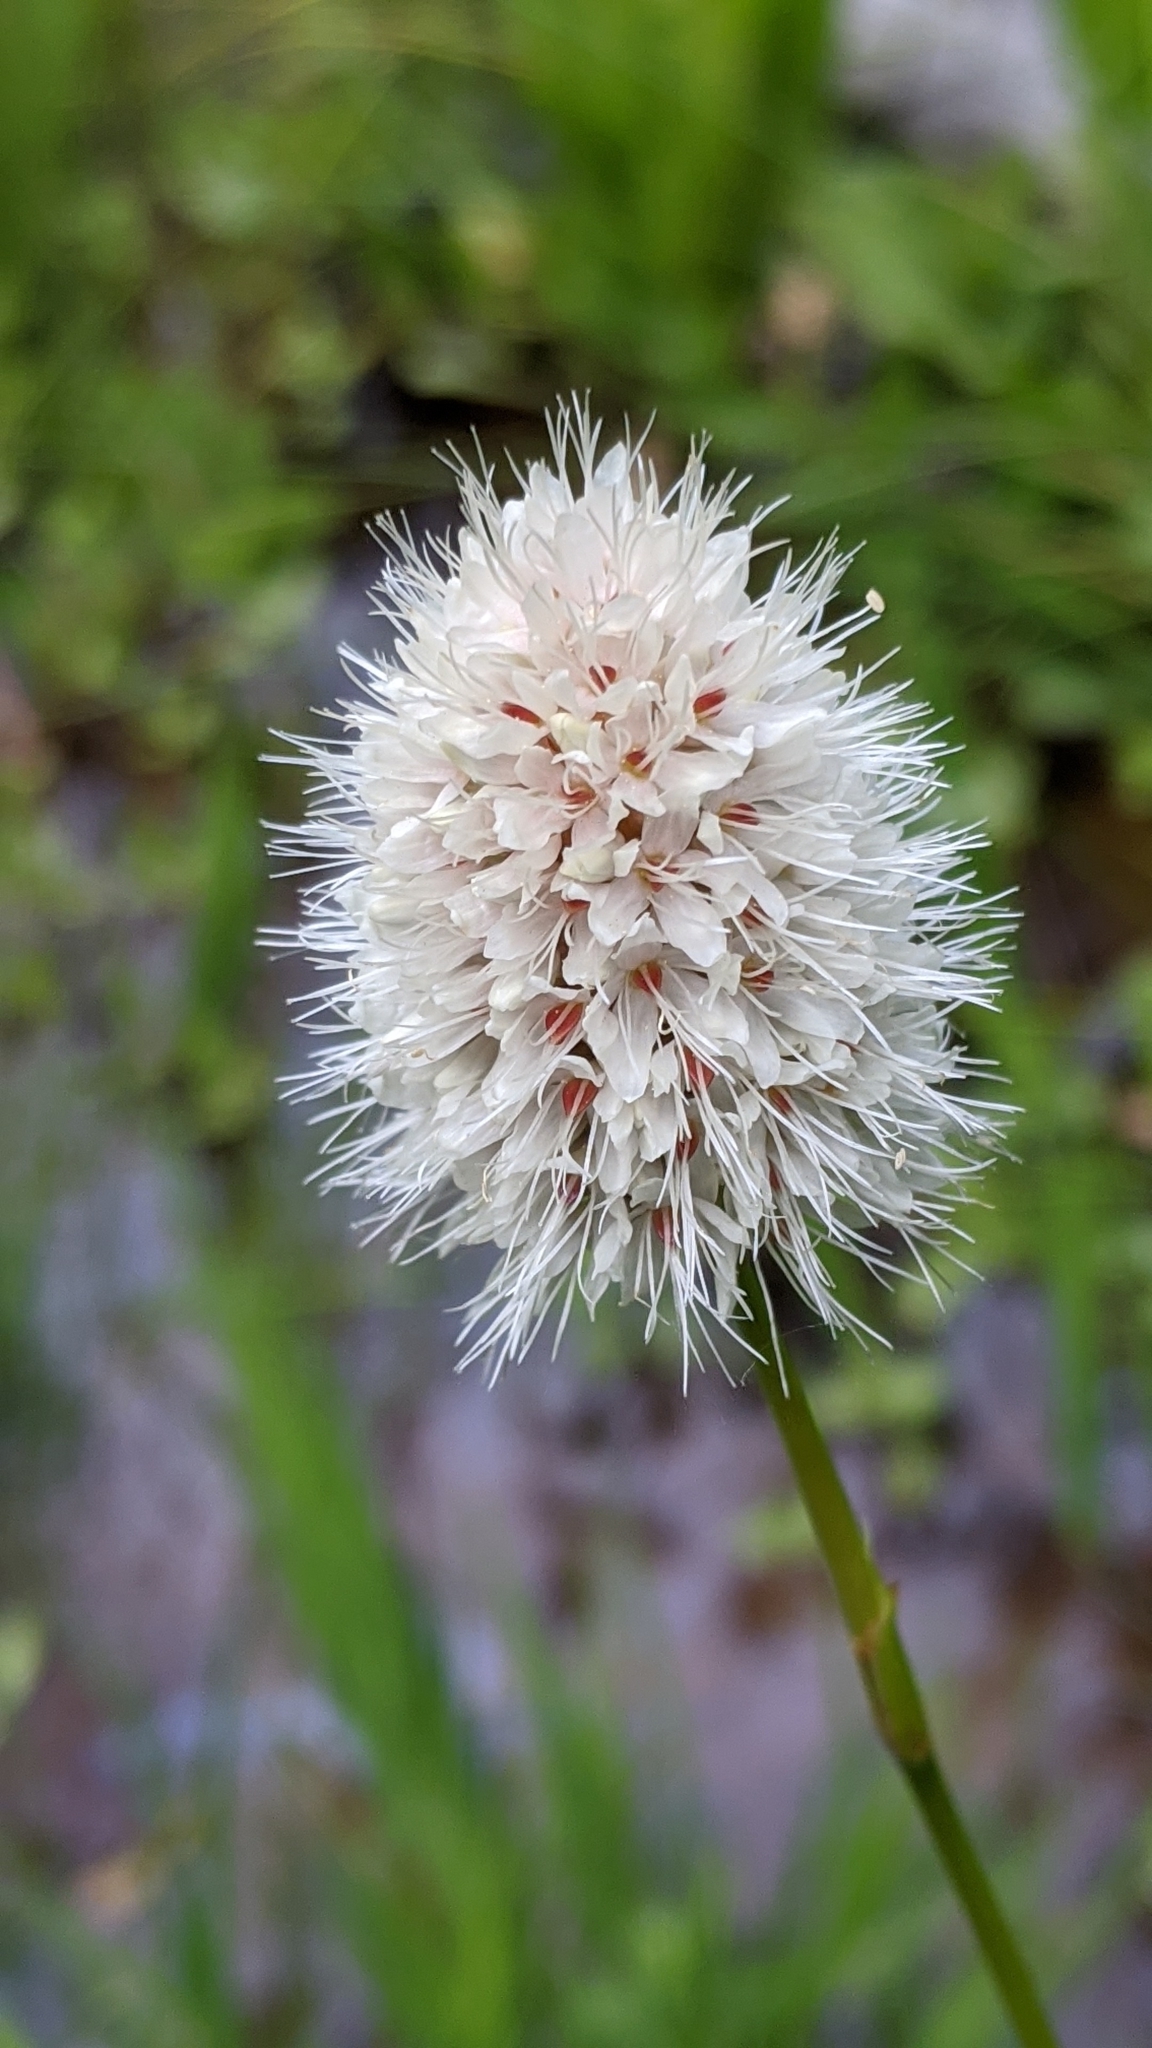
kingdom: Plantae
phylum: Tracheophyta
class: Magnoliopsida
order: Caryophyllales
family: Polygonaceae
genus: Bistorta
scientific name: Bistorta bistortoides
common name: American bistort
